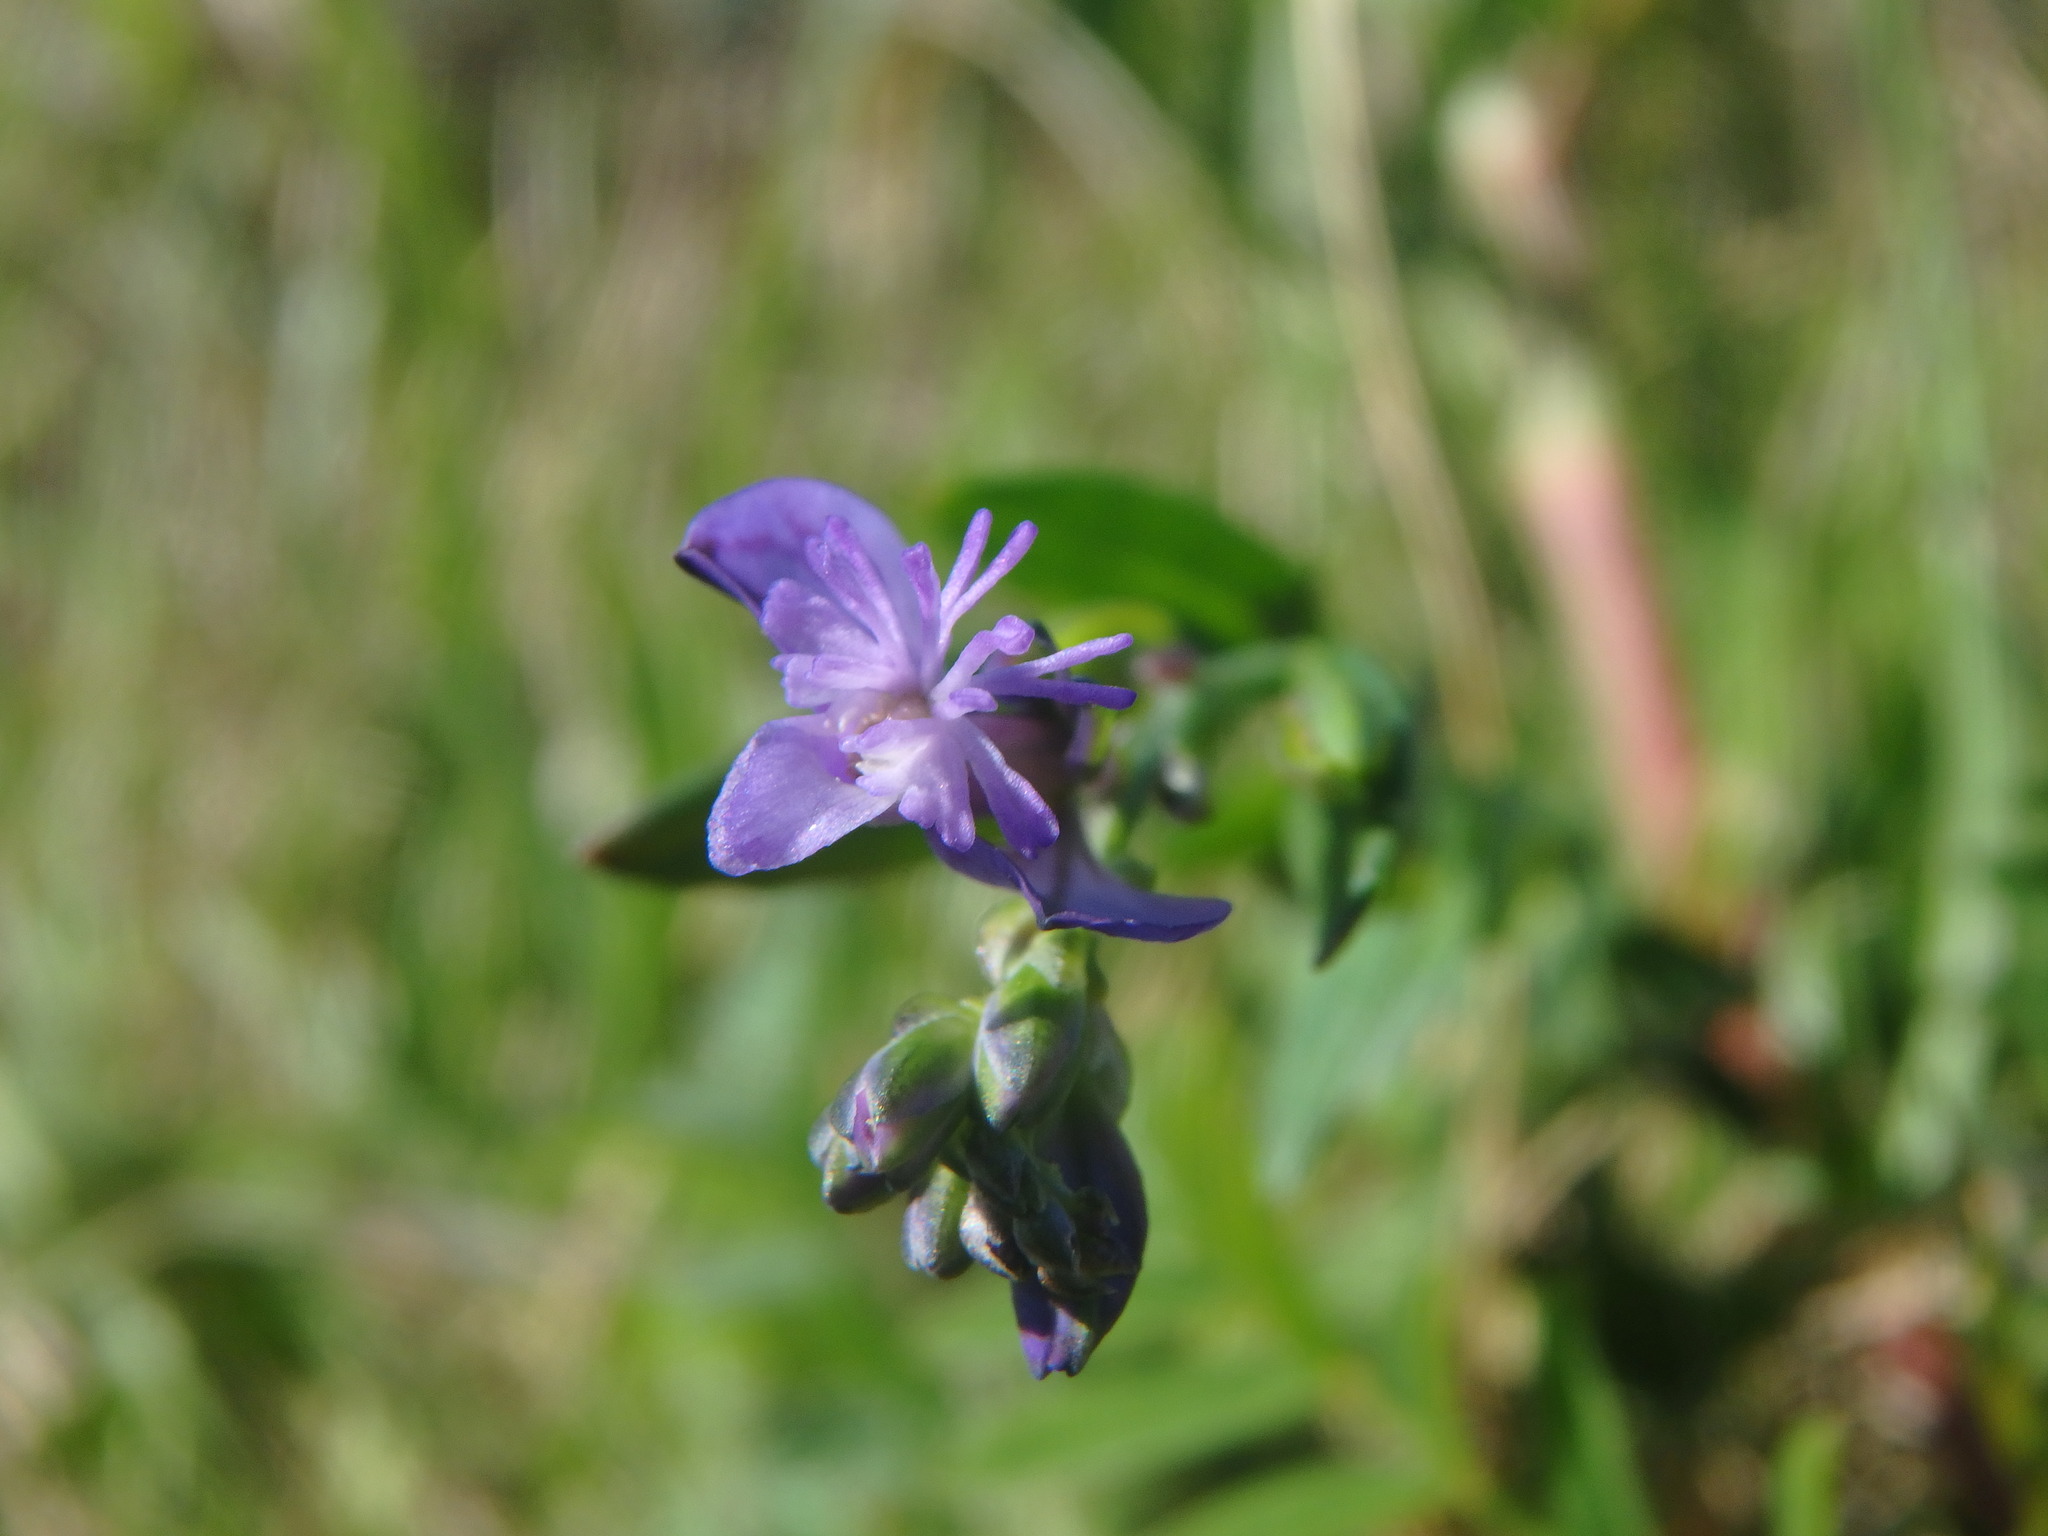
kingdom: Plantae
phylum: Tracheophyta
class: Magnoliopsida
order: Fabales
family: Polygalaceae
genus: Polygala
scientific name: Polygala vulgaris
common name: Common milkwort
